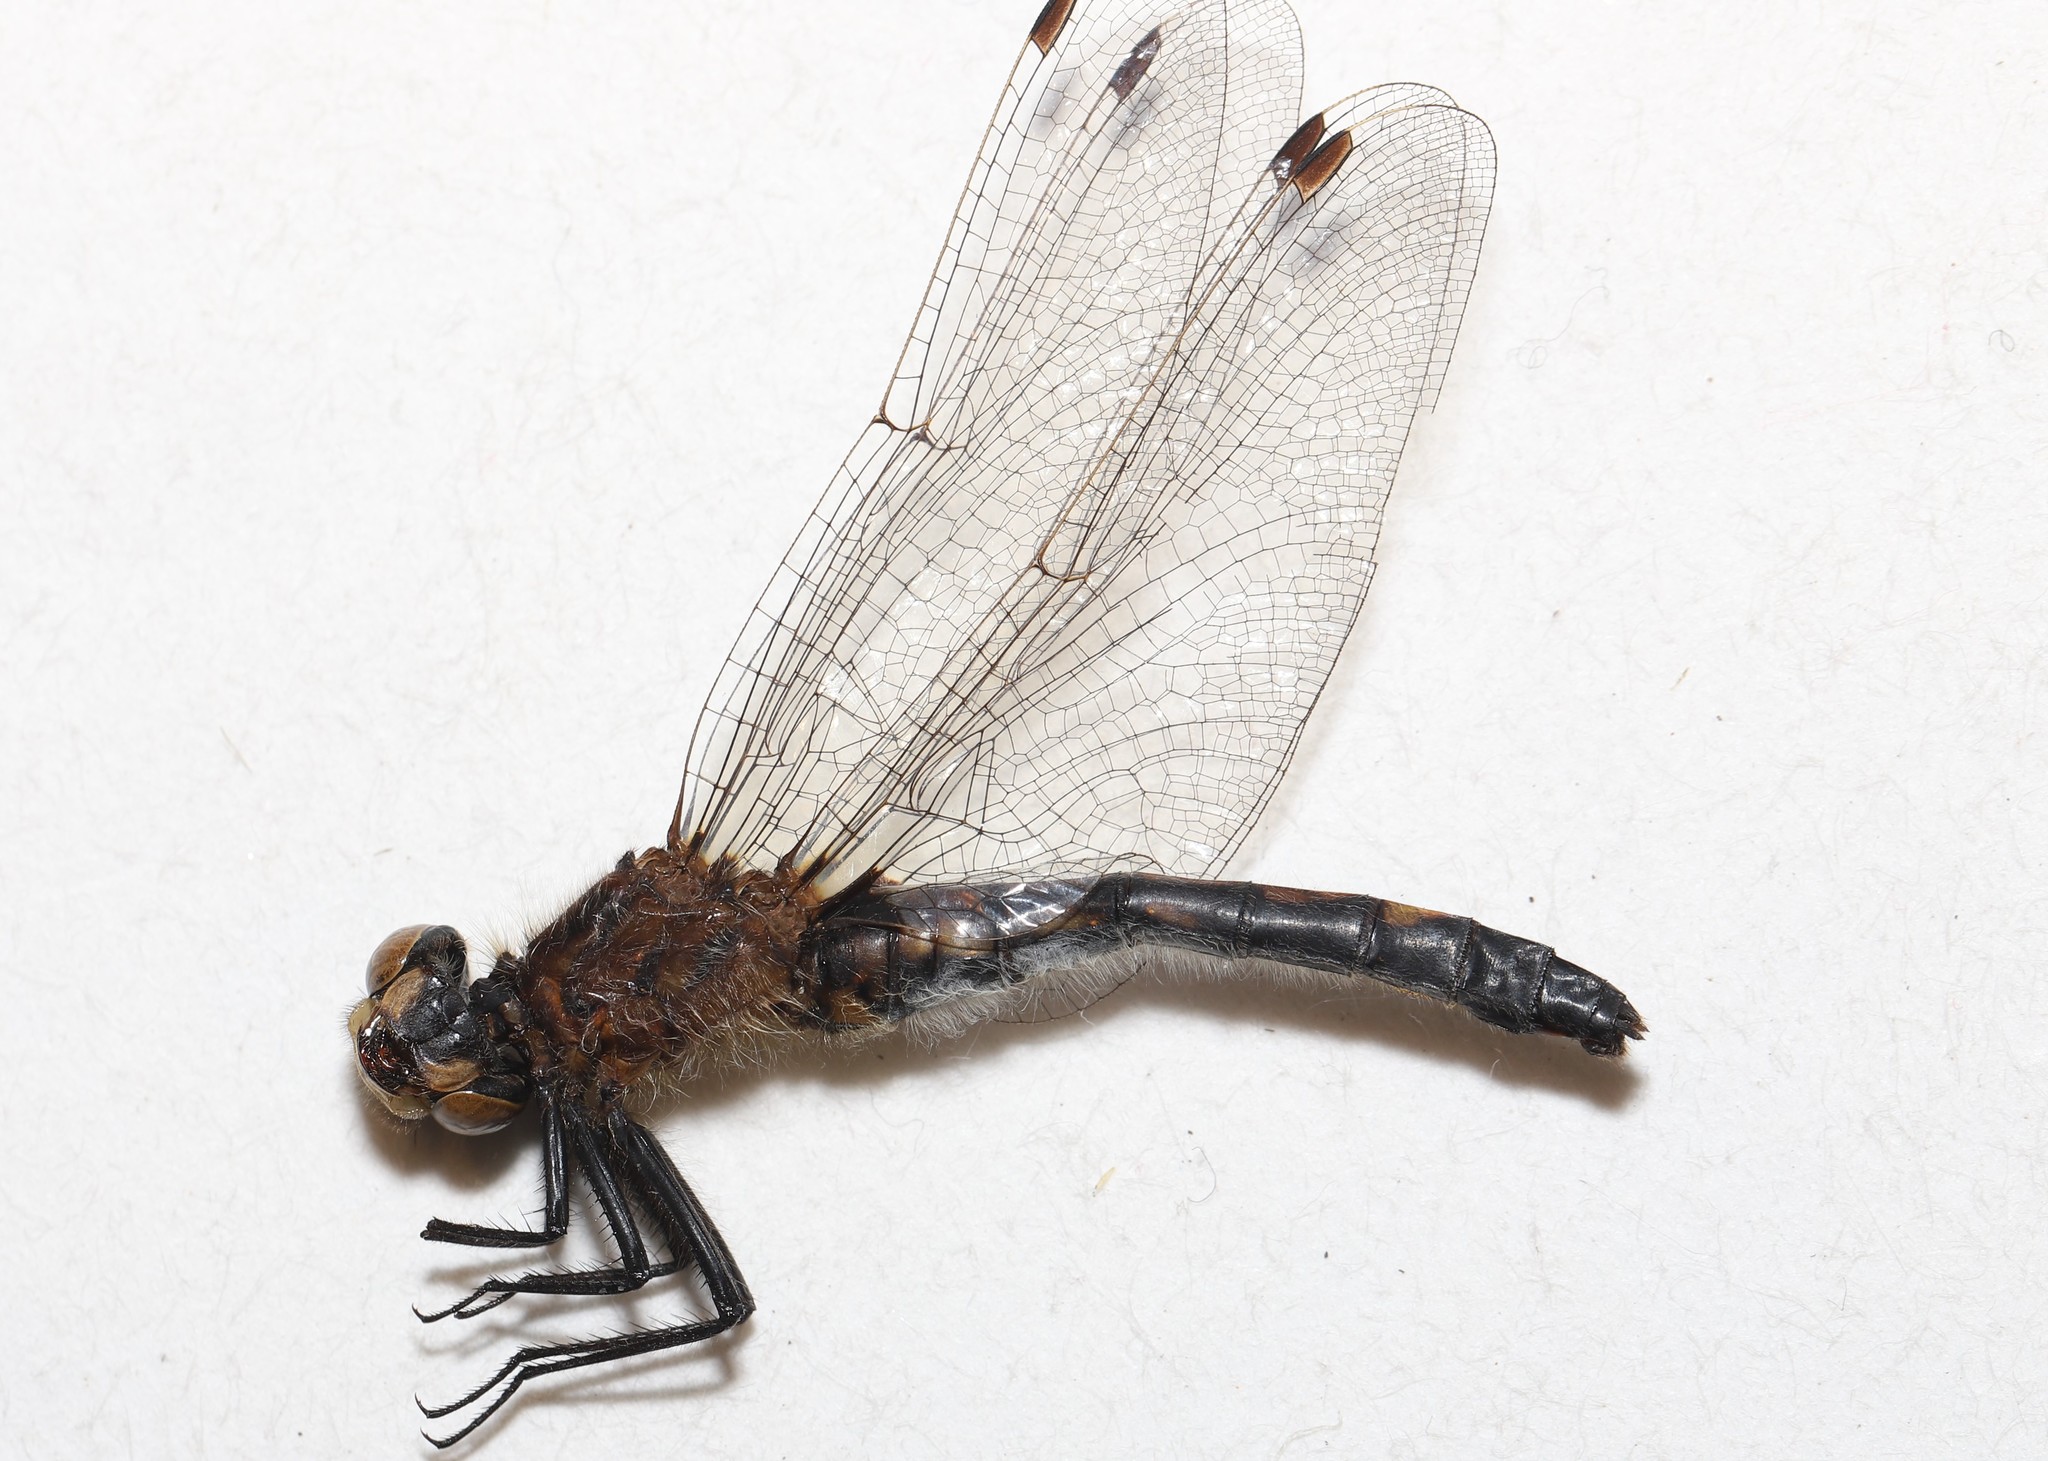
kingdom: Animalia
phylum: Arthropoda
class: Insecta
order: Odonata
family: Libellulidae
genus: Leucorrhinia
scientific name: Leucorrhinia intacta
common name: Dot-tailed whiteface
